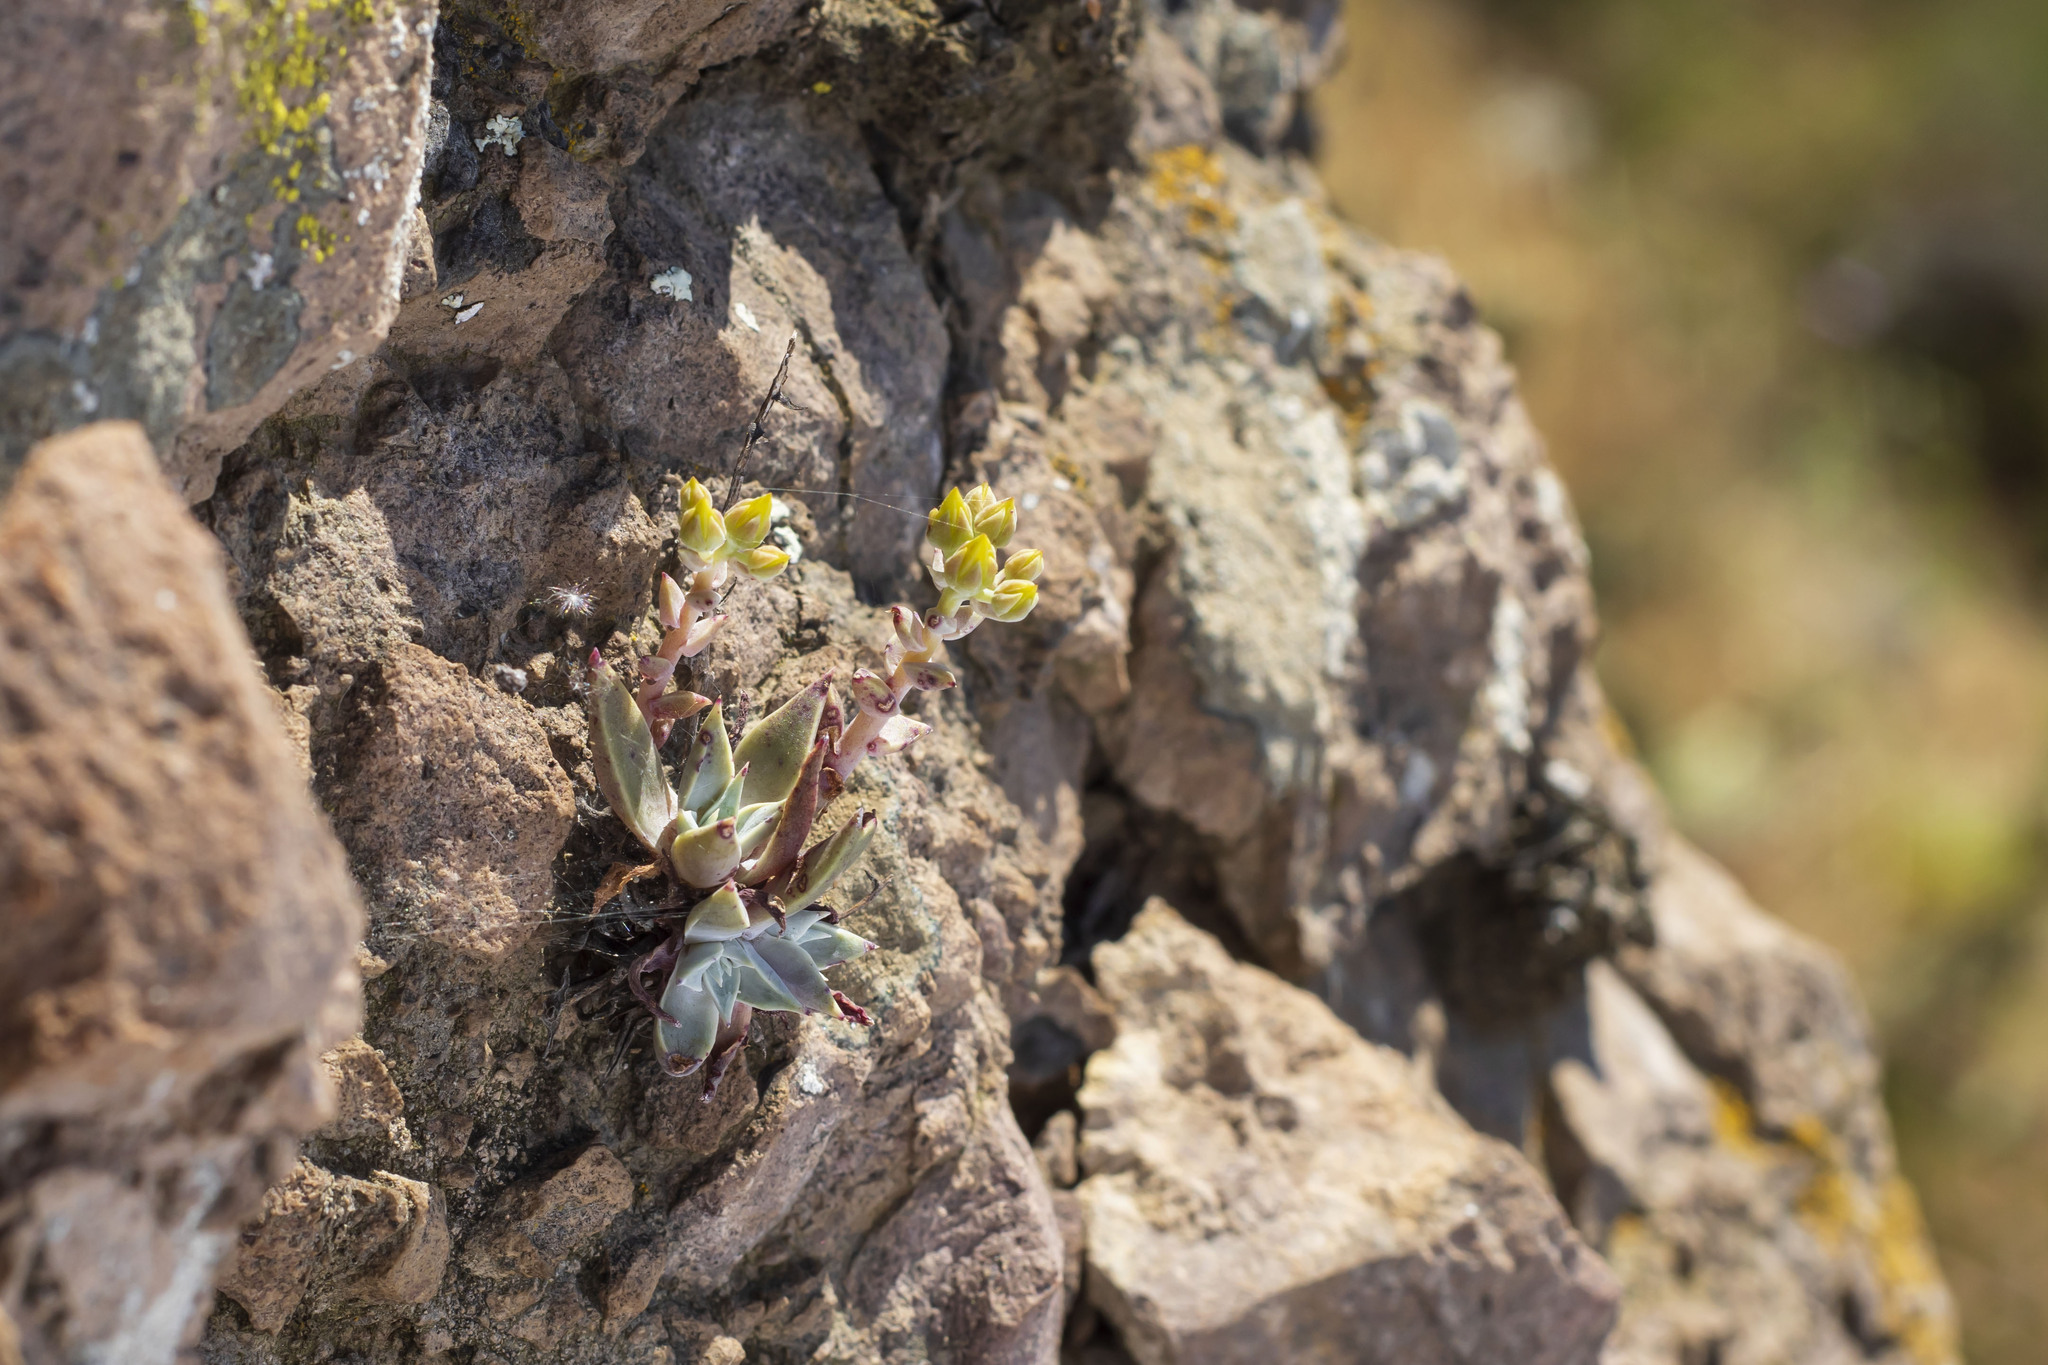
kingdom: Plantae
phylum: Tracheophyta
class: Magnoliopsida
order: Saxifragales
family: Crassulaceae
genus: Dudleya
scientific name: Dudleya verityi
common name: Verity dudleya
